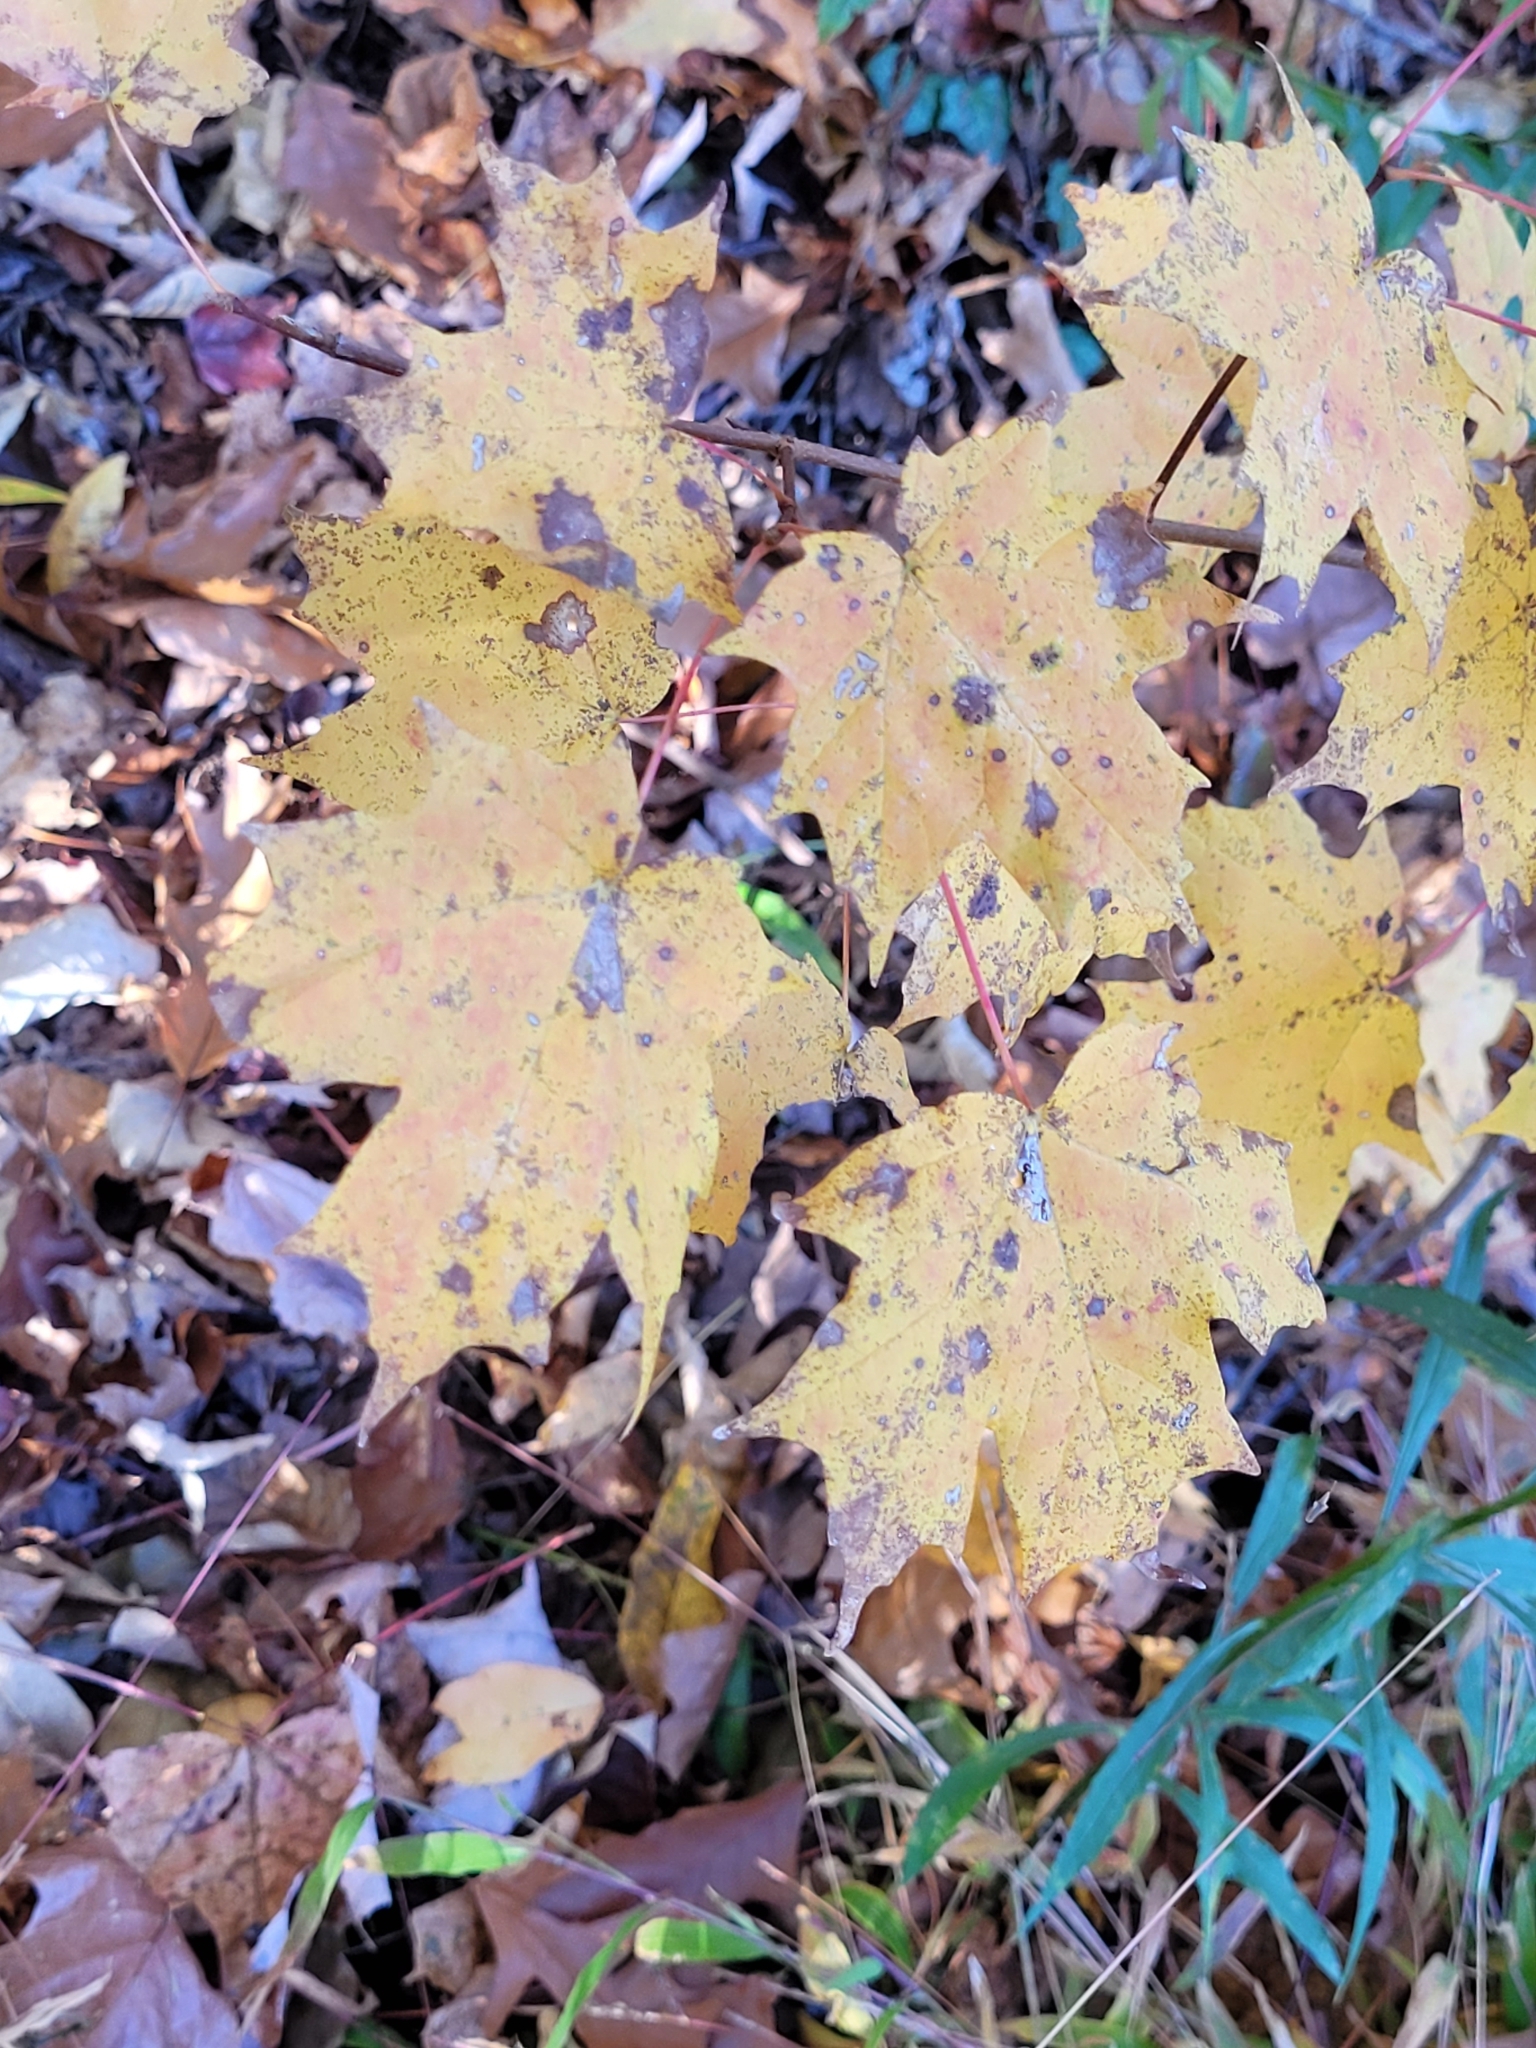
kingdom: Plantae
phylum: Tracheophyta
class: Magnoliopsida
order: Sapindales
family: Sapindaceae
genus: Acer
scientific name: Acer saccharum
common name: Sugar maple
